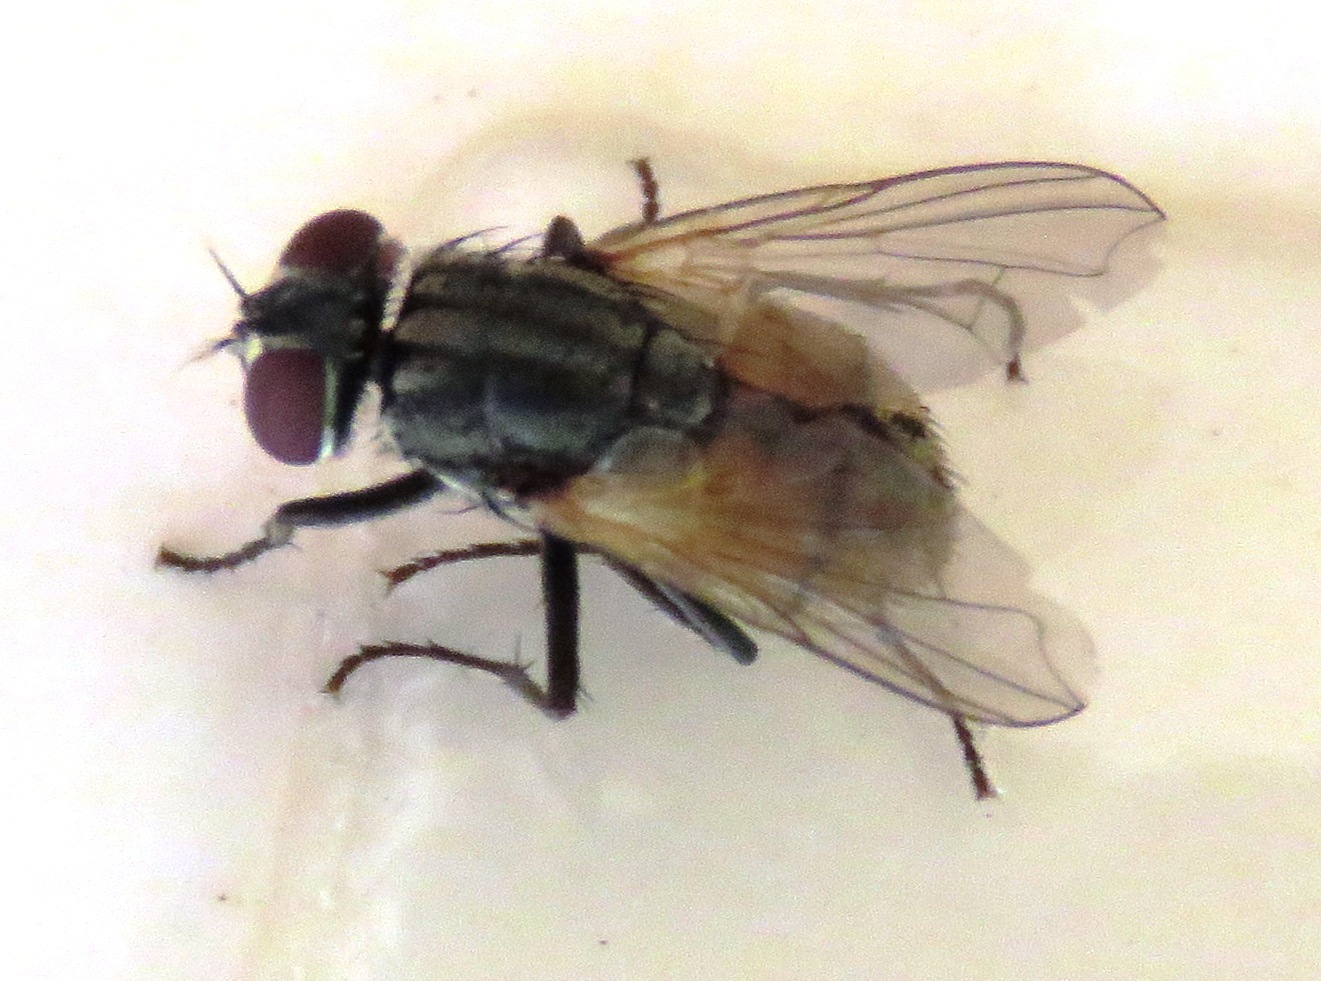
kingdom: Animalia
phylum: Arthropoda
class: Insecta
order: Diptera
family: Muscidae
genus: Musca
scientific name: Musca domestica
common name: House fly
